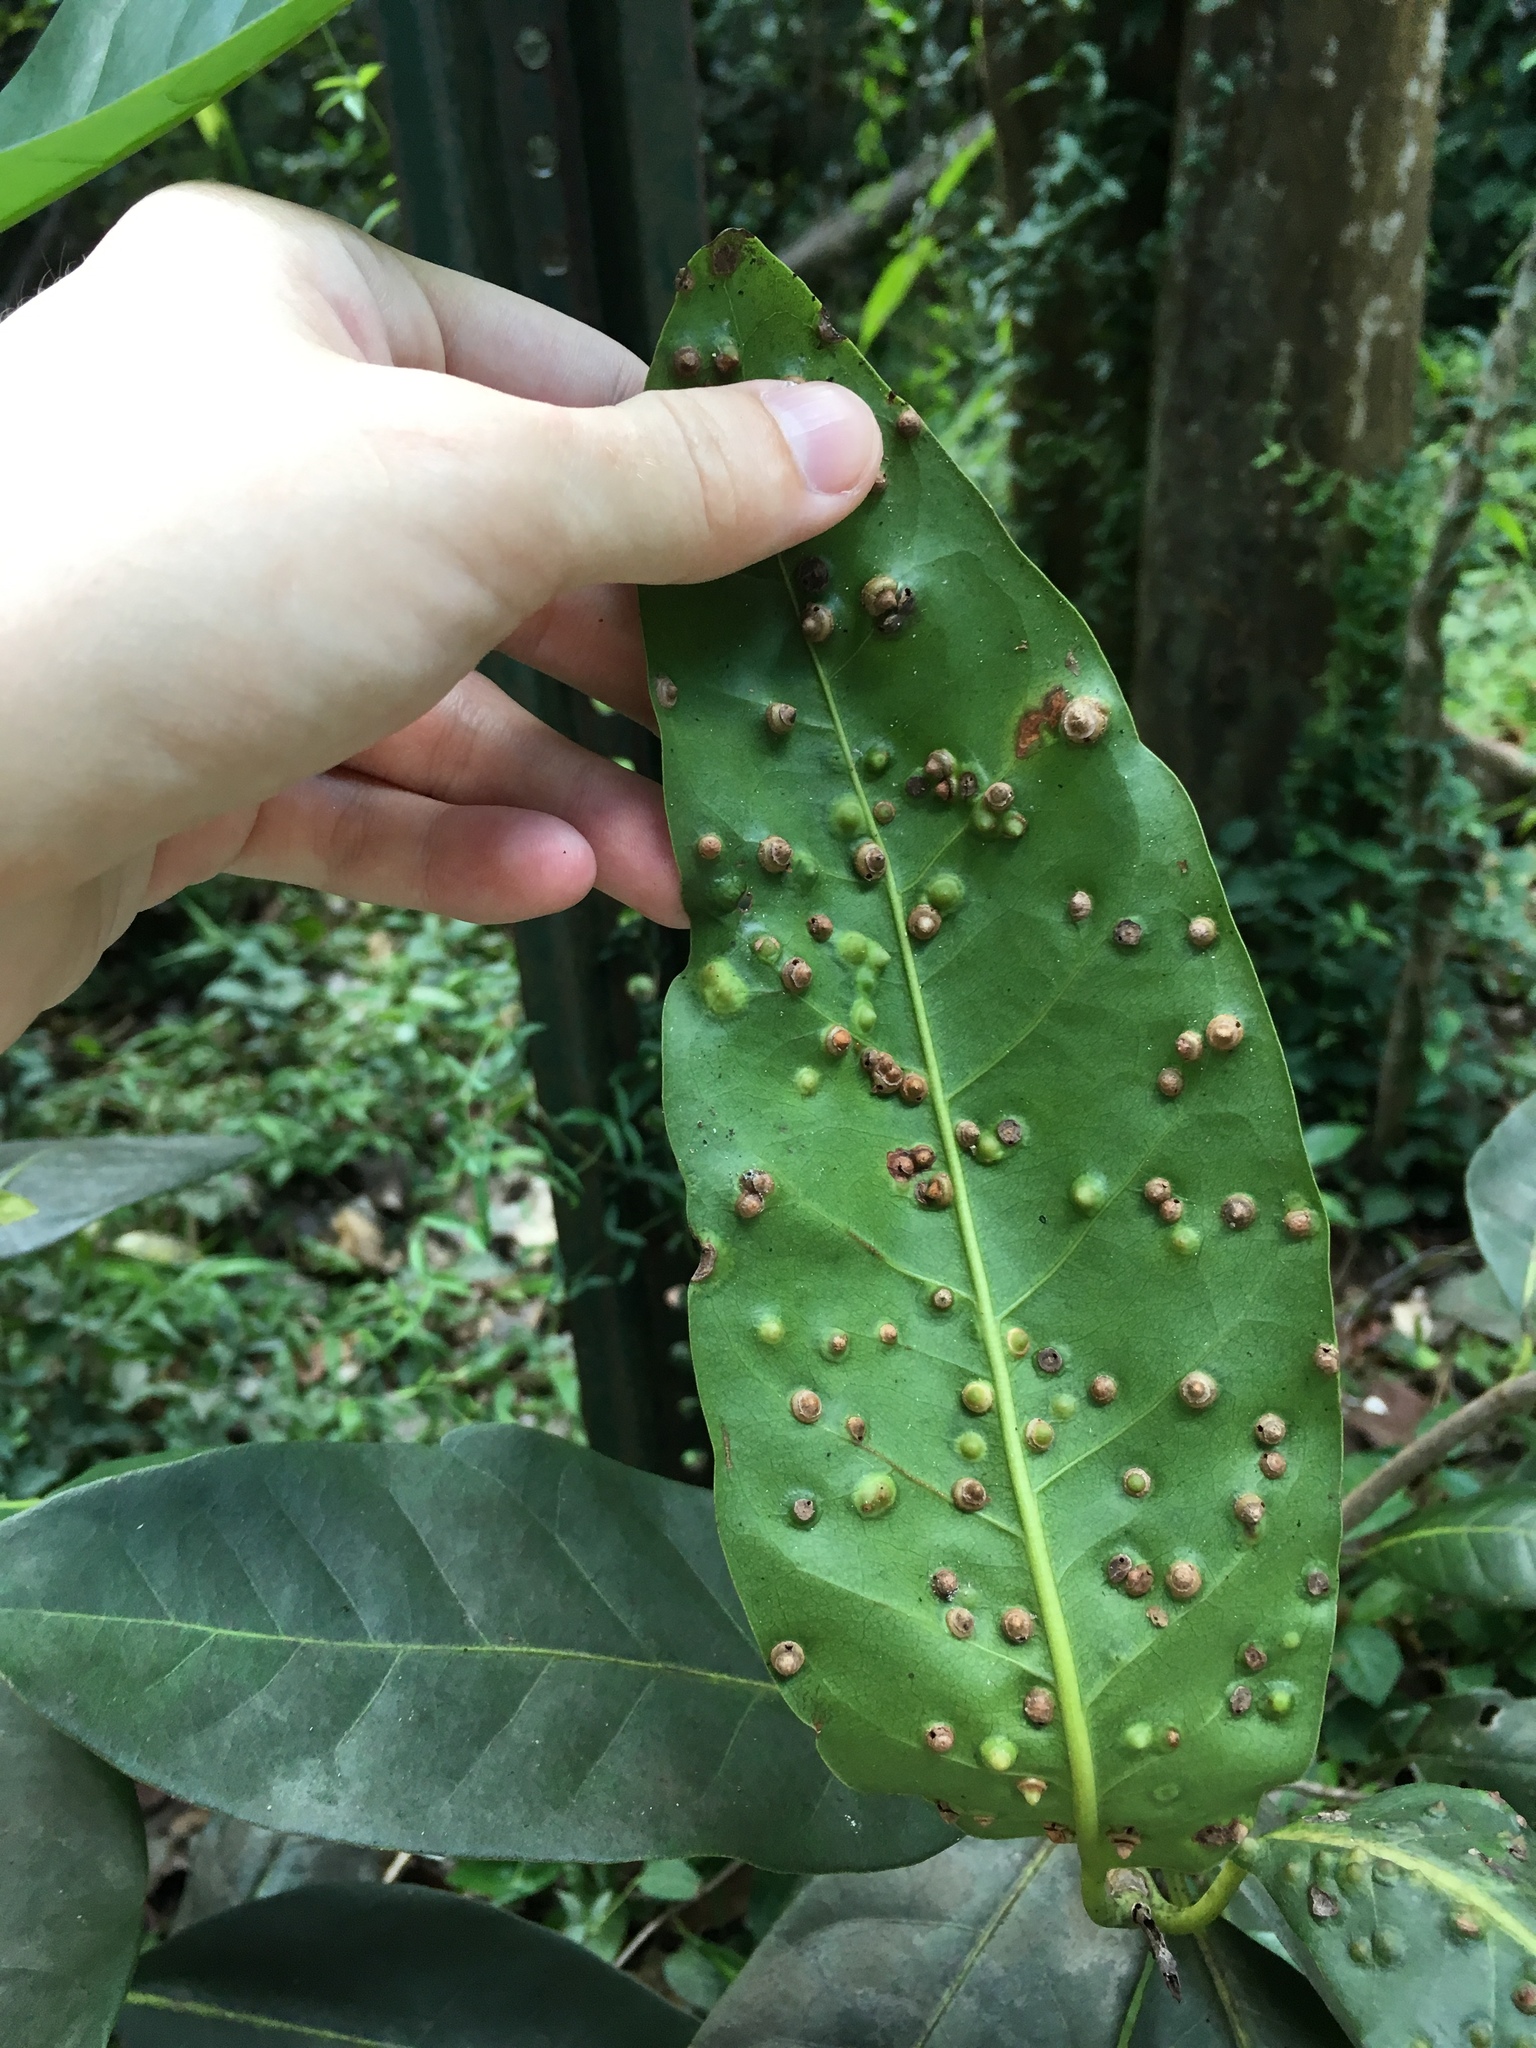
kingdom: Animalia
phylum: Arthropoda
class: Insecta
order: Diptera
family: Cecidomyiidae
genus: Ctenodactylomyia
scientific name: Ctenodactylomyia watsoni
